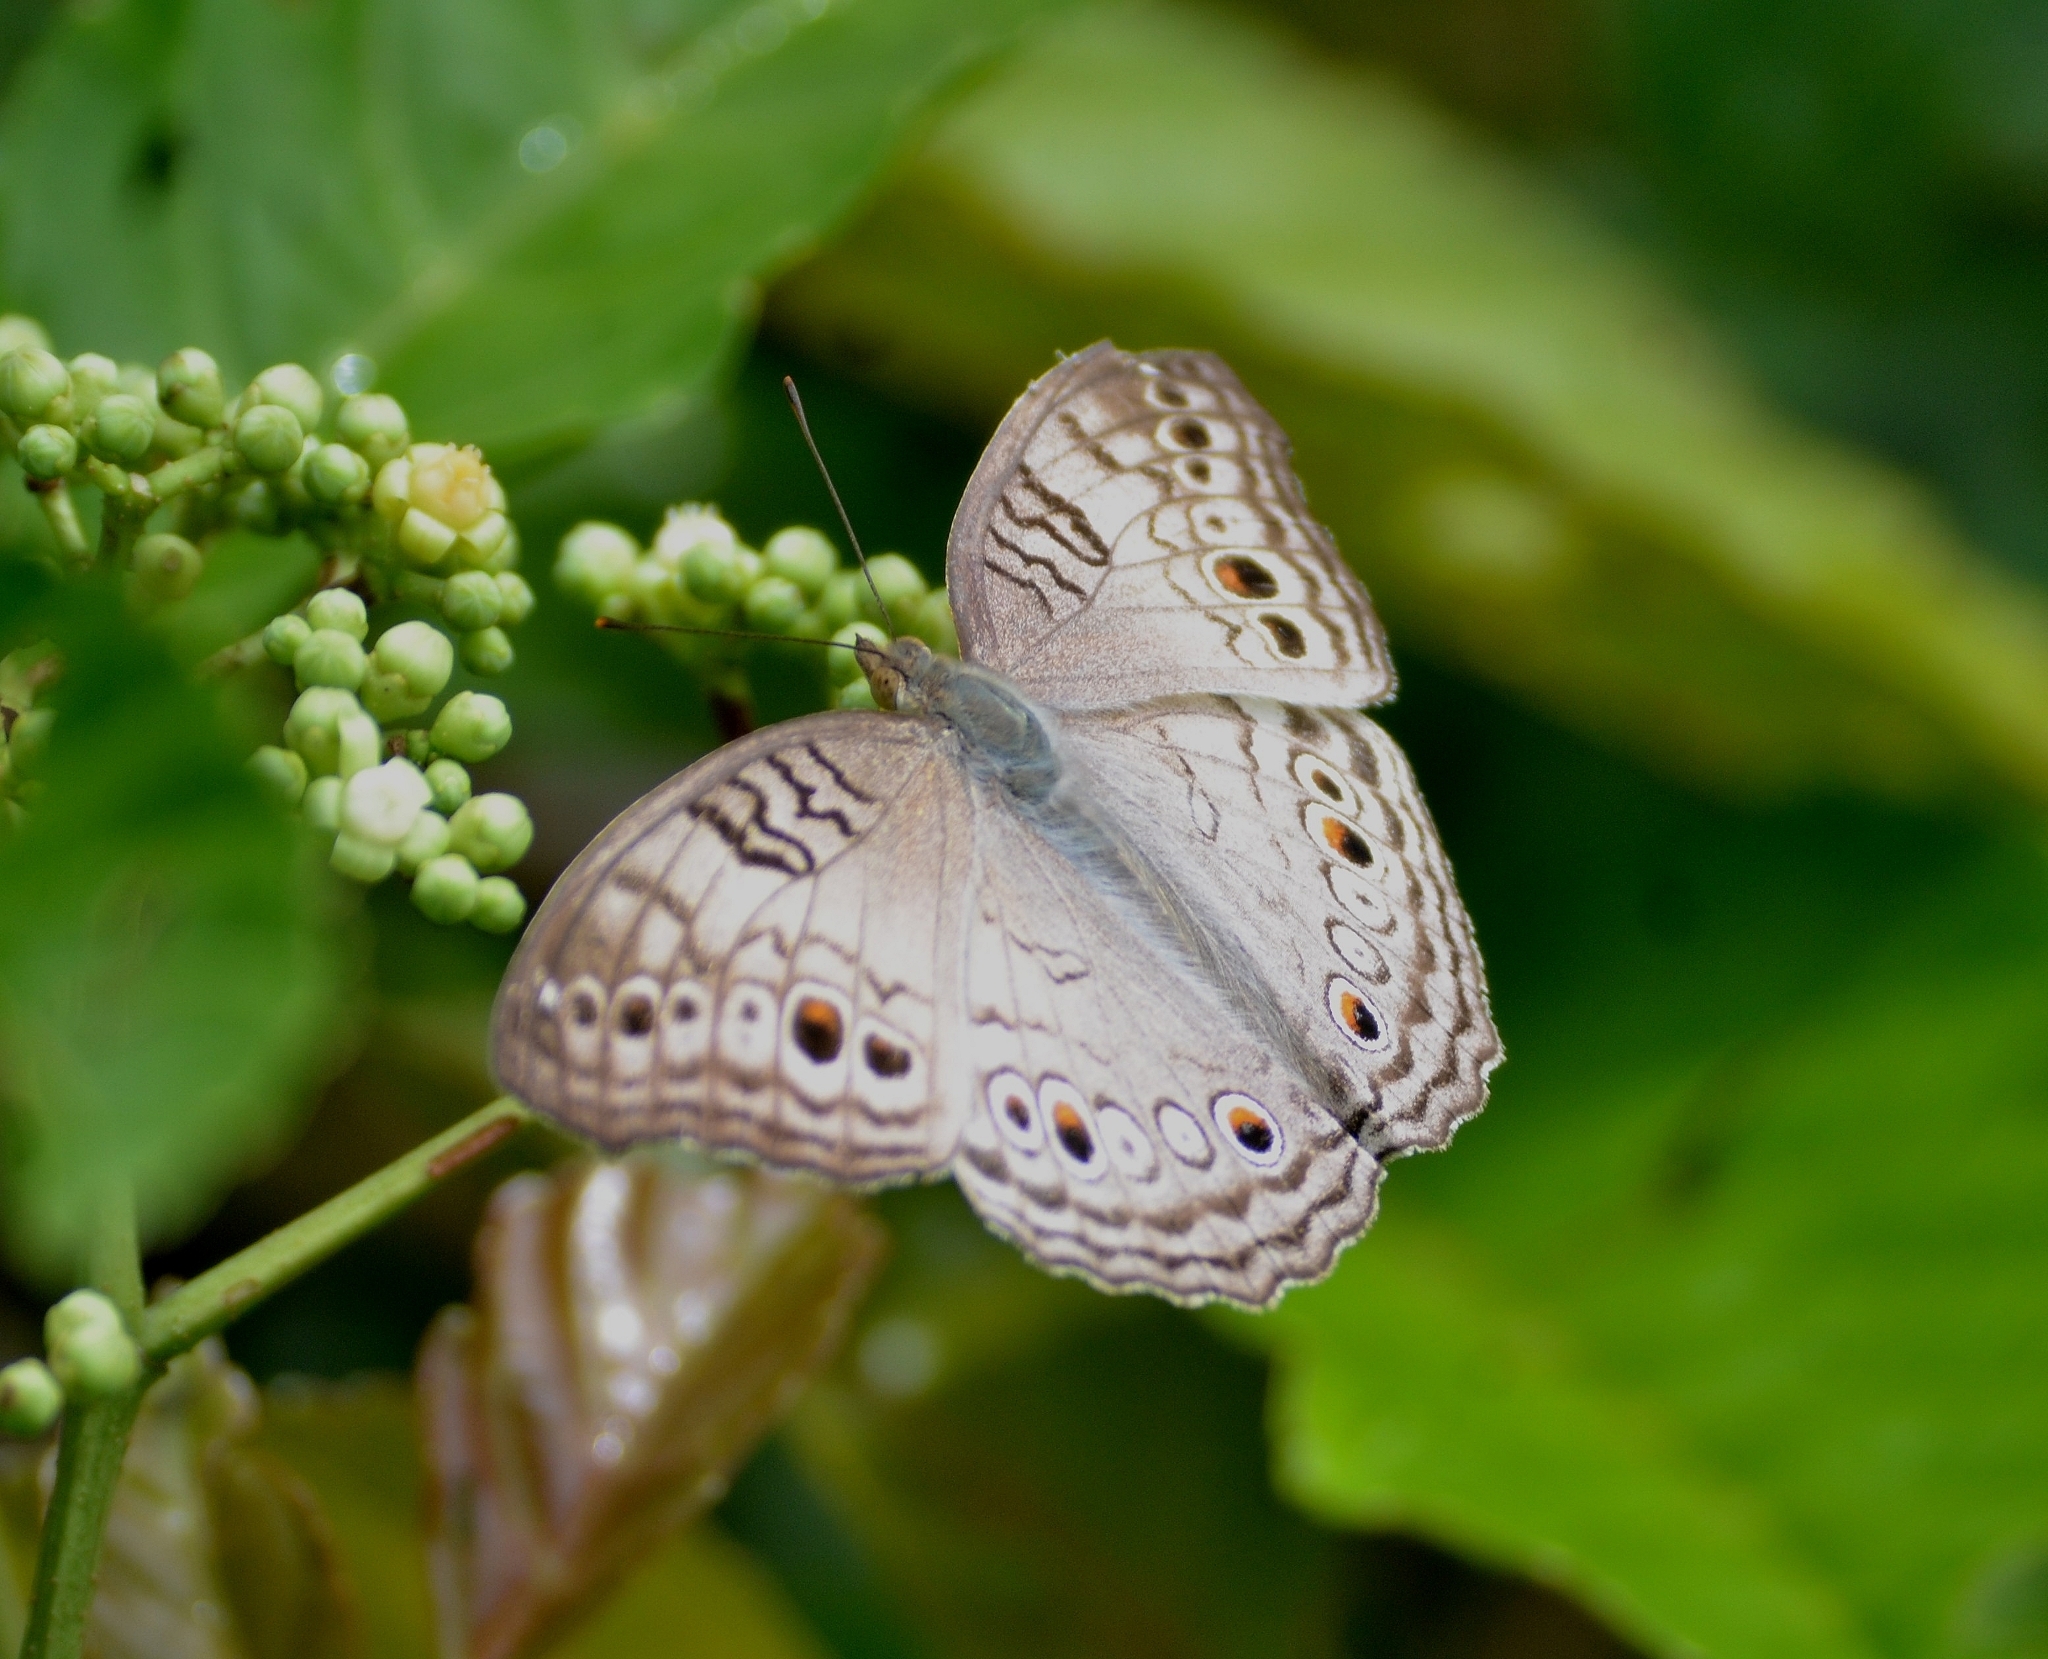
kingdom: Animalia
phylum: Arthropoda
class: Insecta
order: Lepidoptera
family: Nymphalidae
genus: Junonia
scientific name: Junonia atlites
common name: Grey pansy
